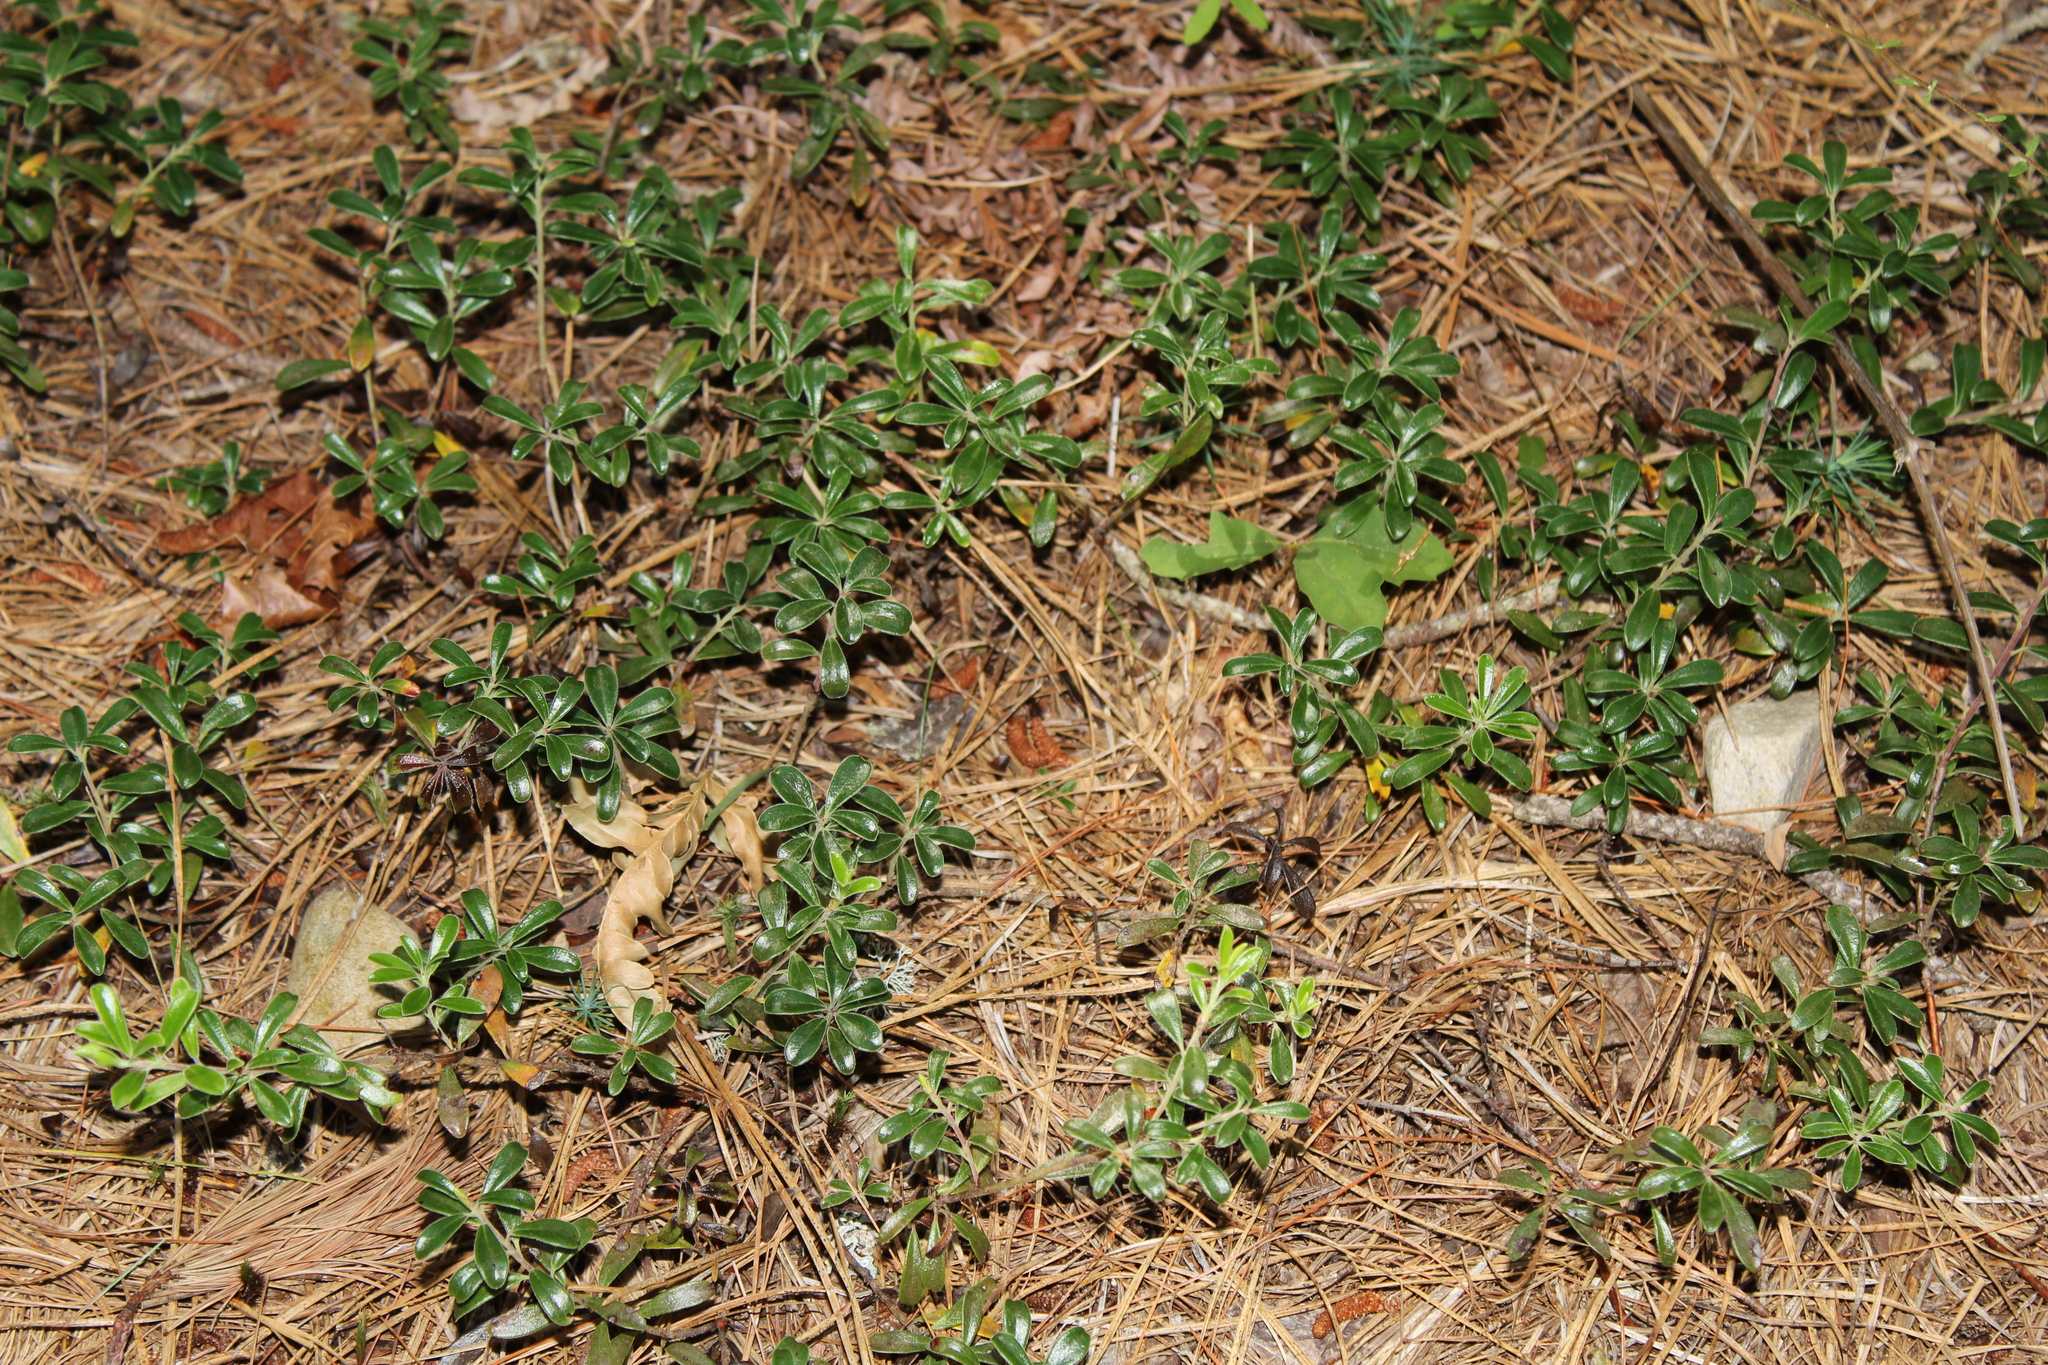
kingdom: Plantae
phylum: Tracheophyta
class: Magnoliopsida
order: Ericales
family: Ericaceae
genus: Arctostaphylos
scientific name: Arctostaphylos uva-ursi
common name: Bearberry
